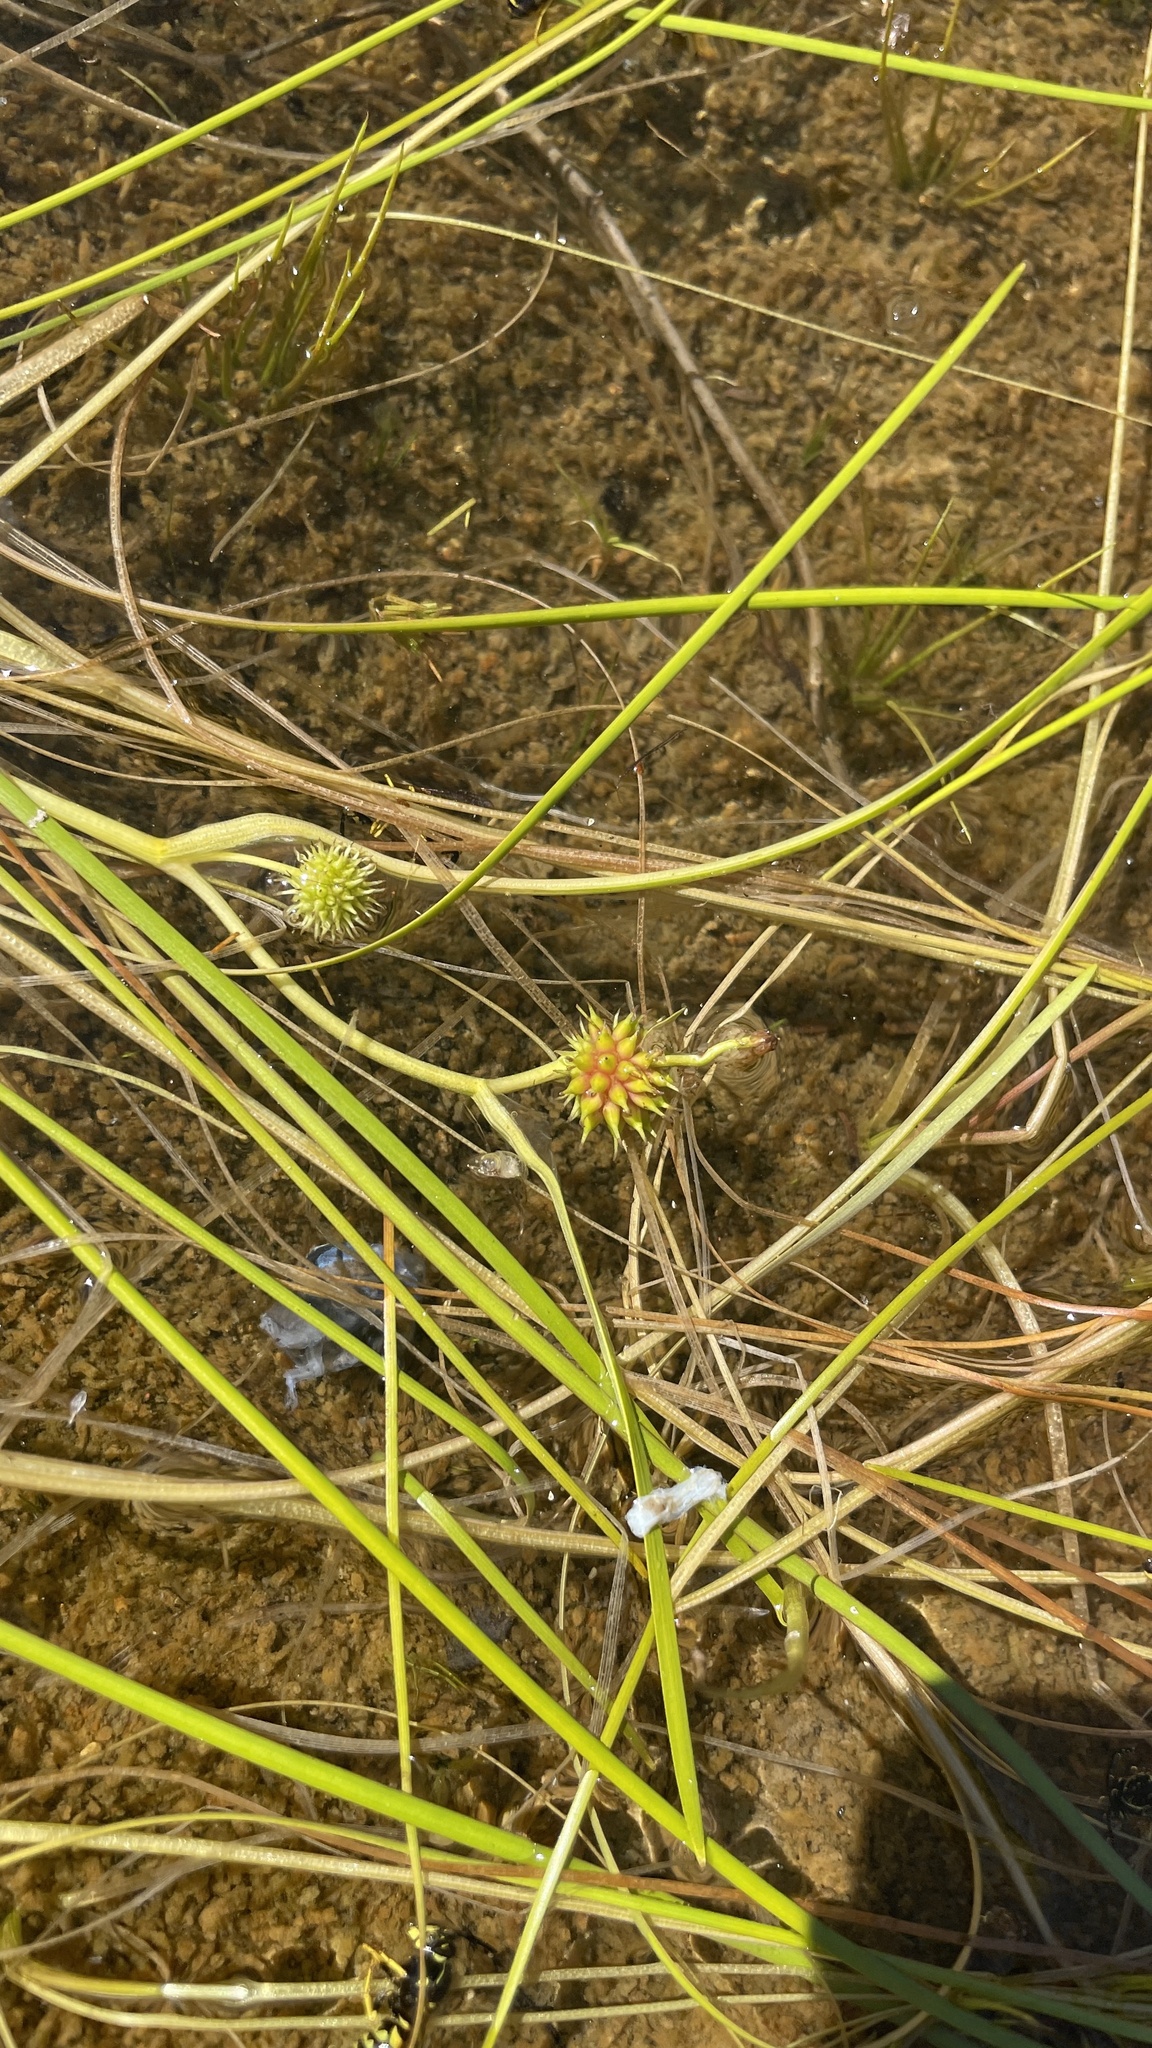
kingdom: Plantae
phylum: Tracheophyta
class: Liliopsida
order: Poales
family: Typhaceae
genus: Sparganium
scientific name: Sparganium angustifolium
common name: Floating bur-reed
